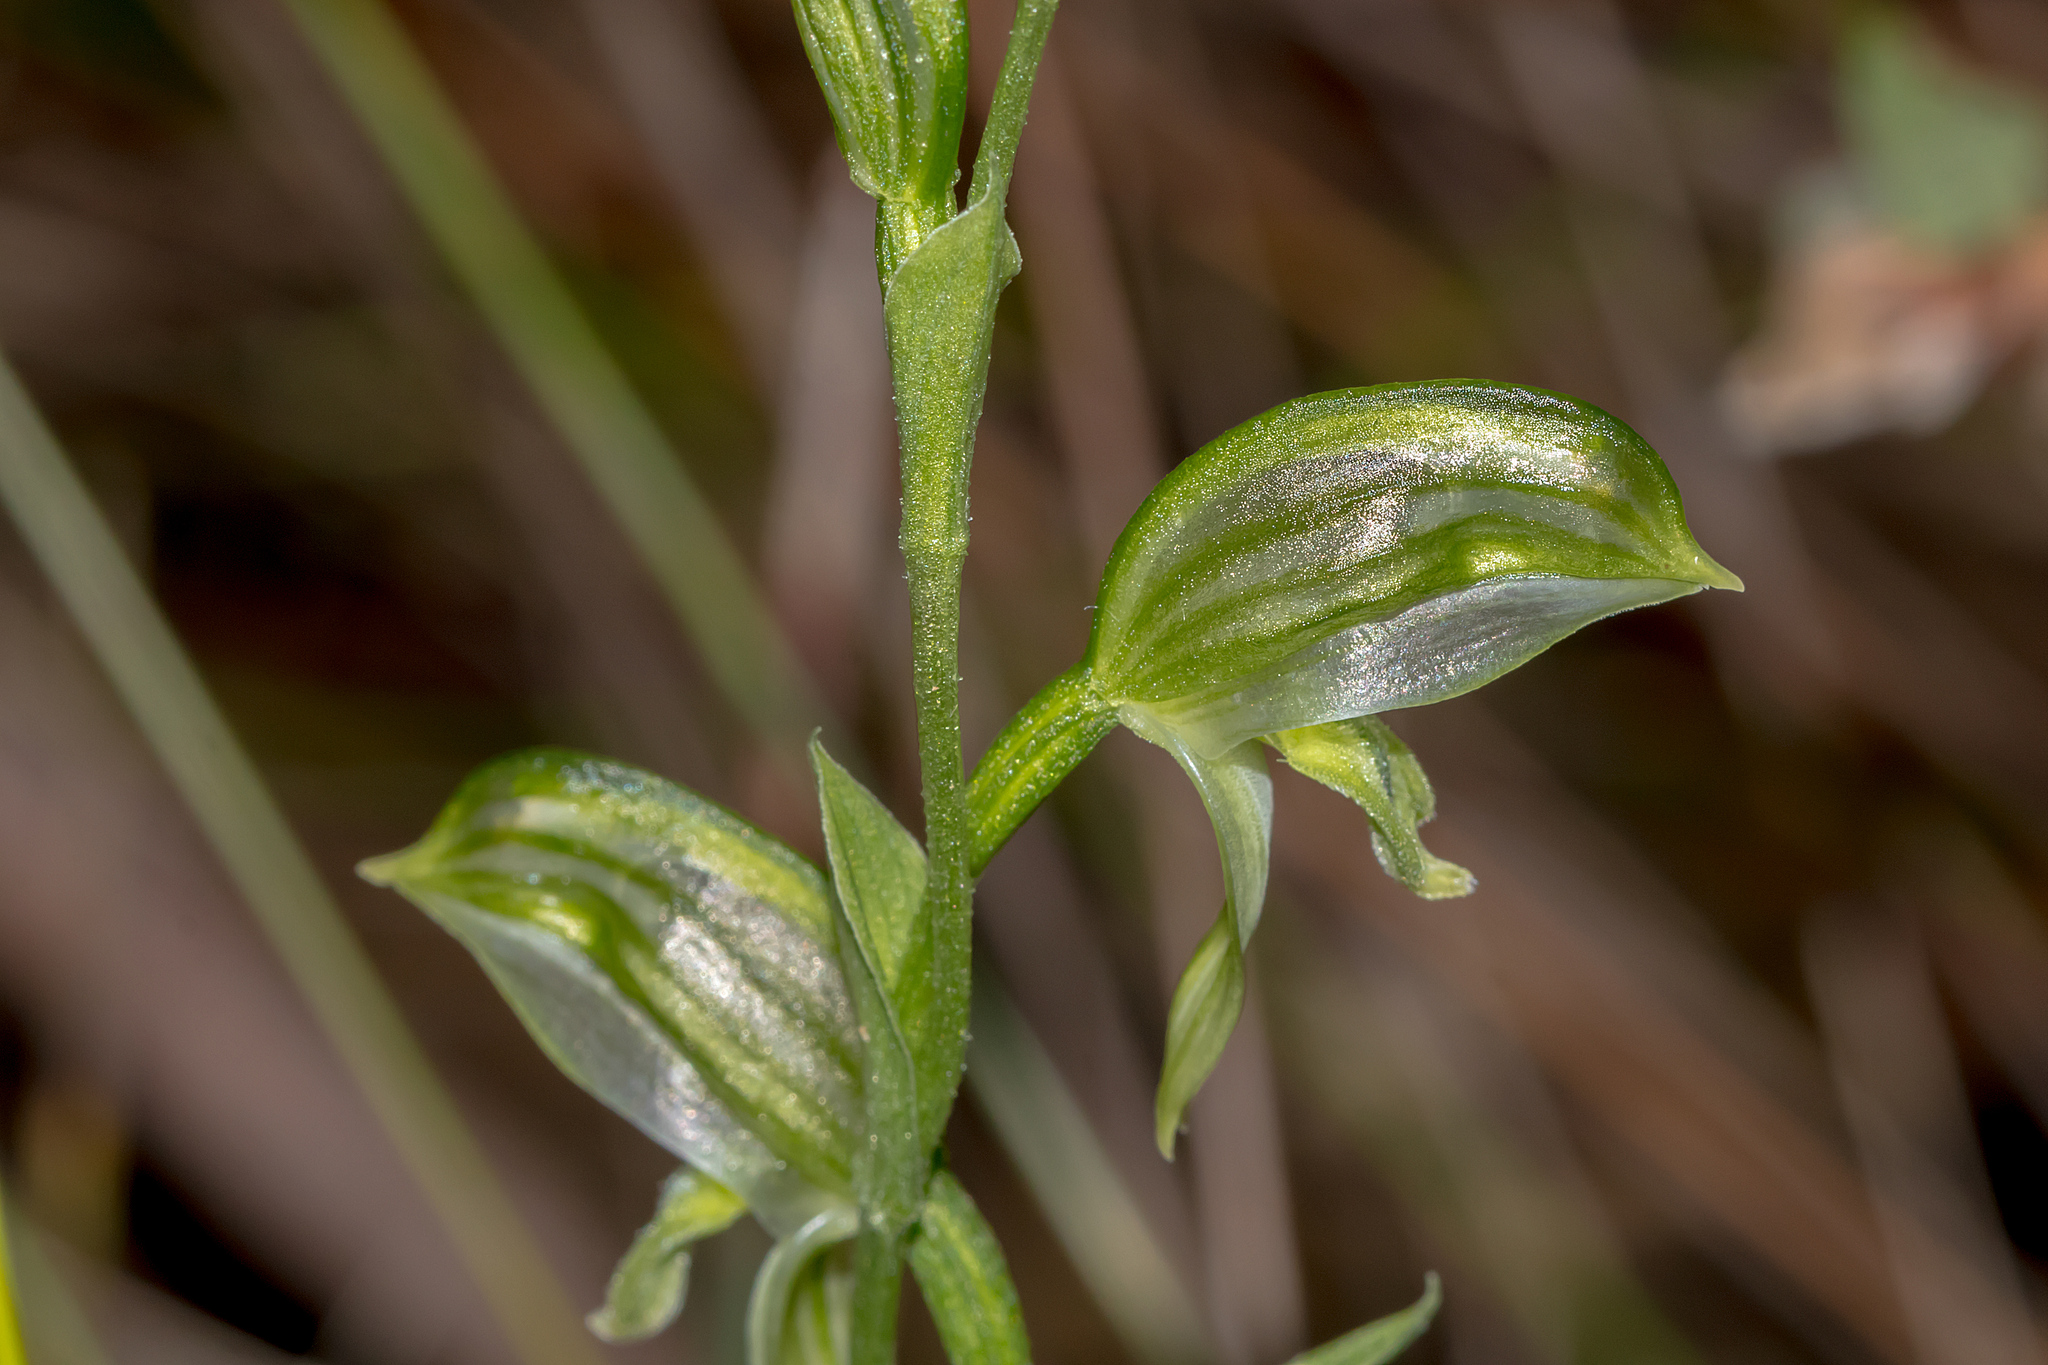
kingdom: Plantae
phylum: Tracheophyta
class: Liliopsida
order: Asparagales
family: Orchidaceae
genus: Pterostylis
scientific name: Pterostylis smaragdyna
